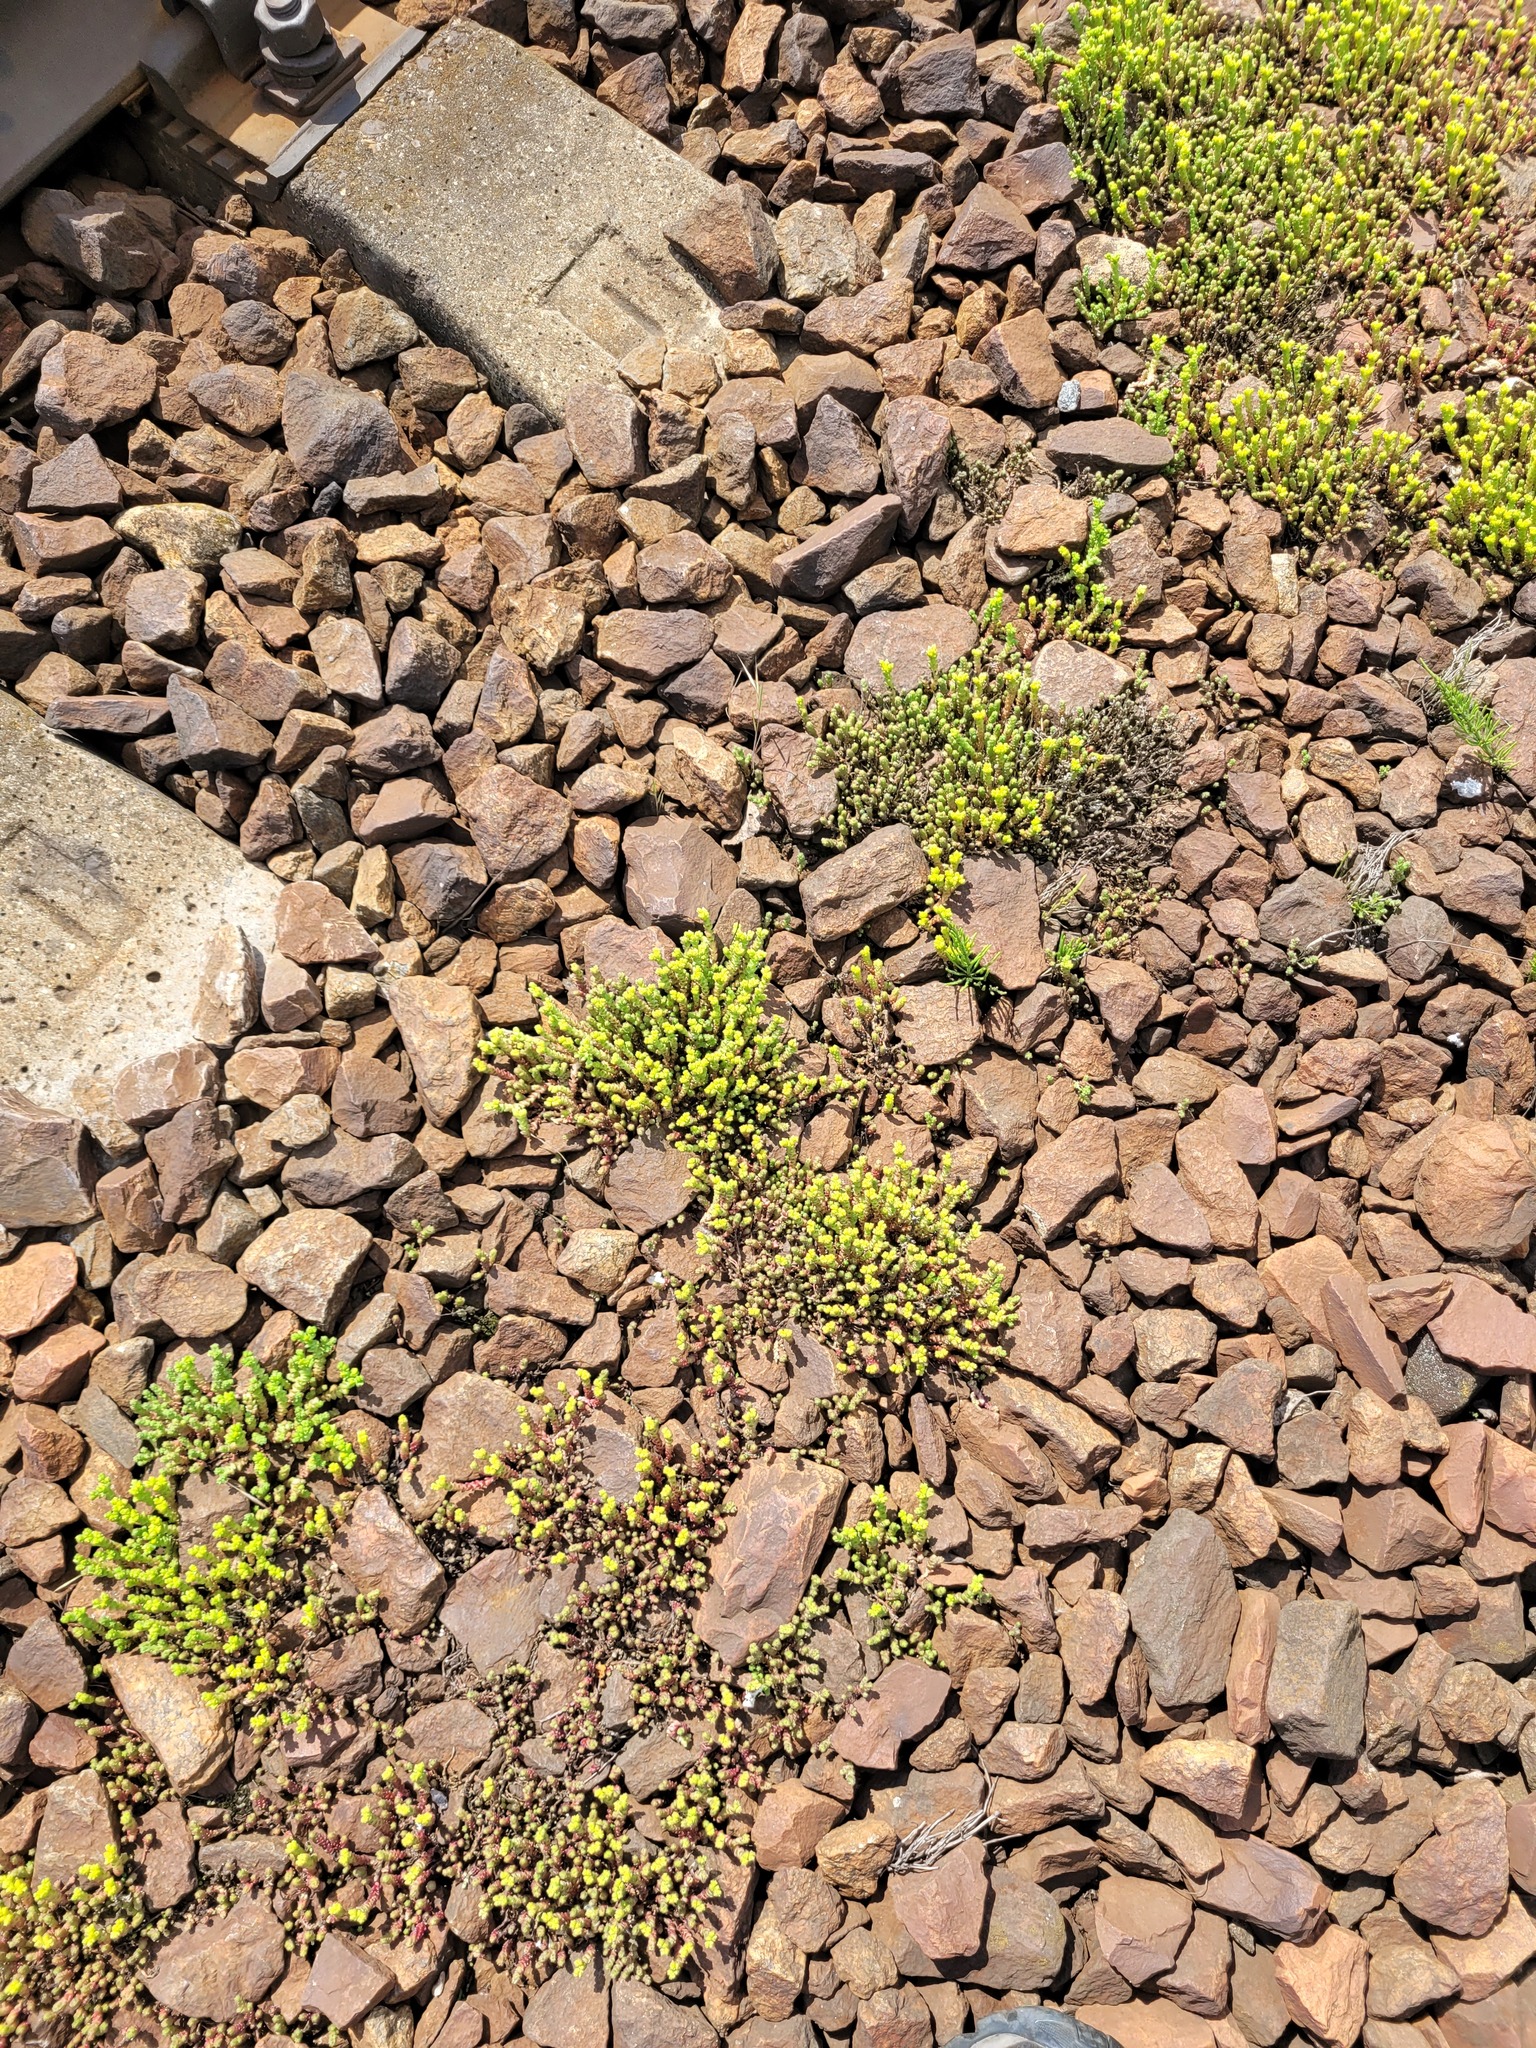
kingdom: Plantae
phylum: Tracheophyta
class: Magnoliopsida
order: Saxifragales
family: Crassulaceae
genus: Sedum
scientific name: Sedum acre
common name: Biting stonecrop
